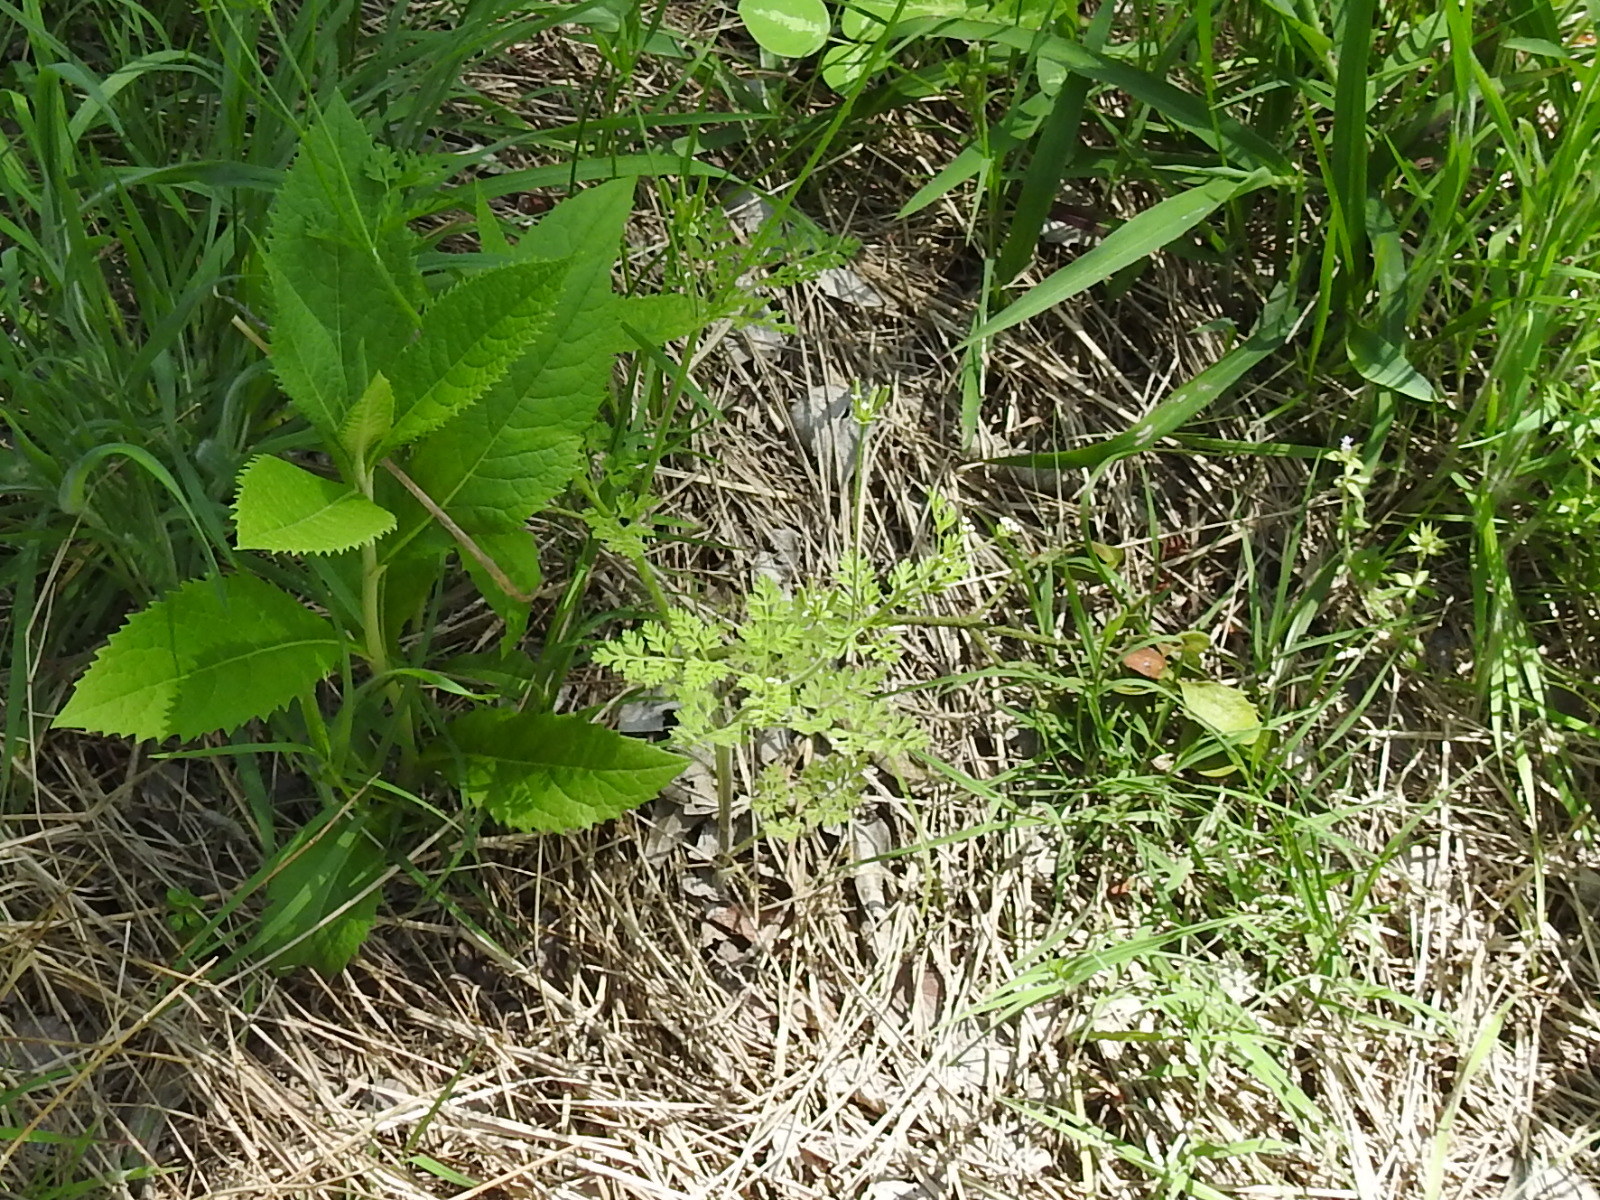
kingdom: Plantae
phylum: Tracheophyta
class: Magnoliopsida
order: Apiales
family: Apiaceae
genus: Chaerophyllum
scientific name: Chaerophyllum tainturieri
